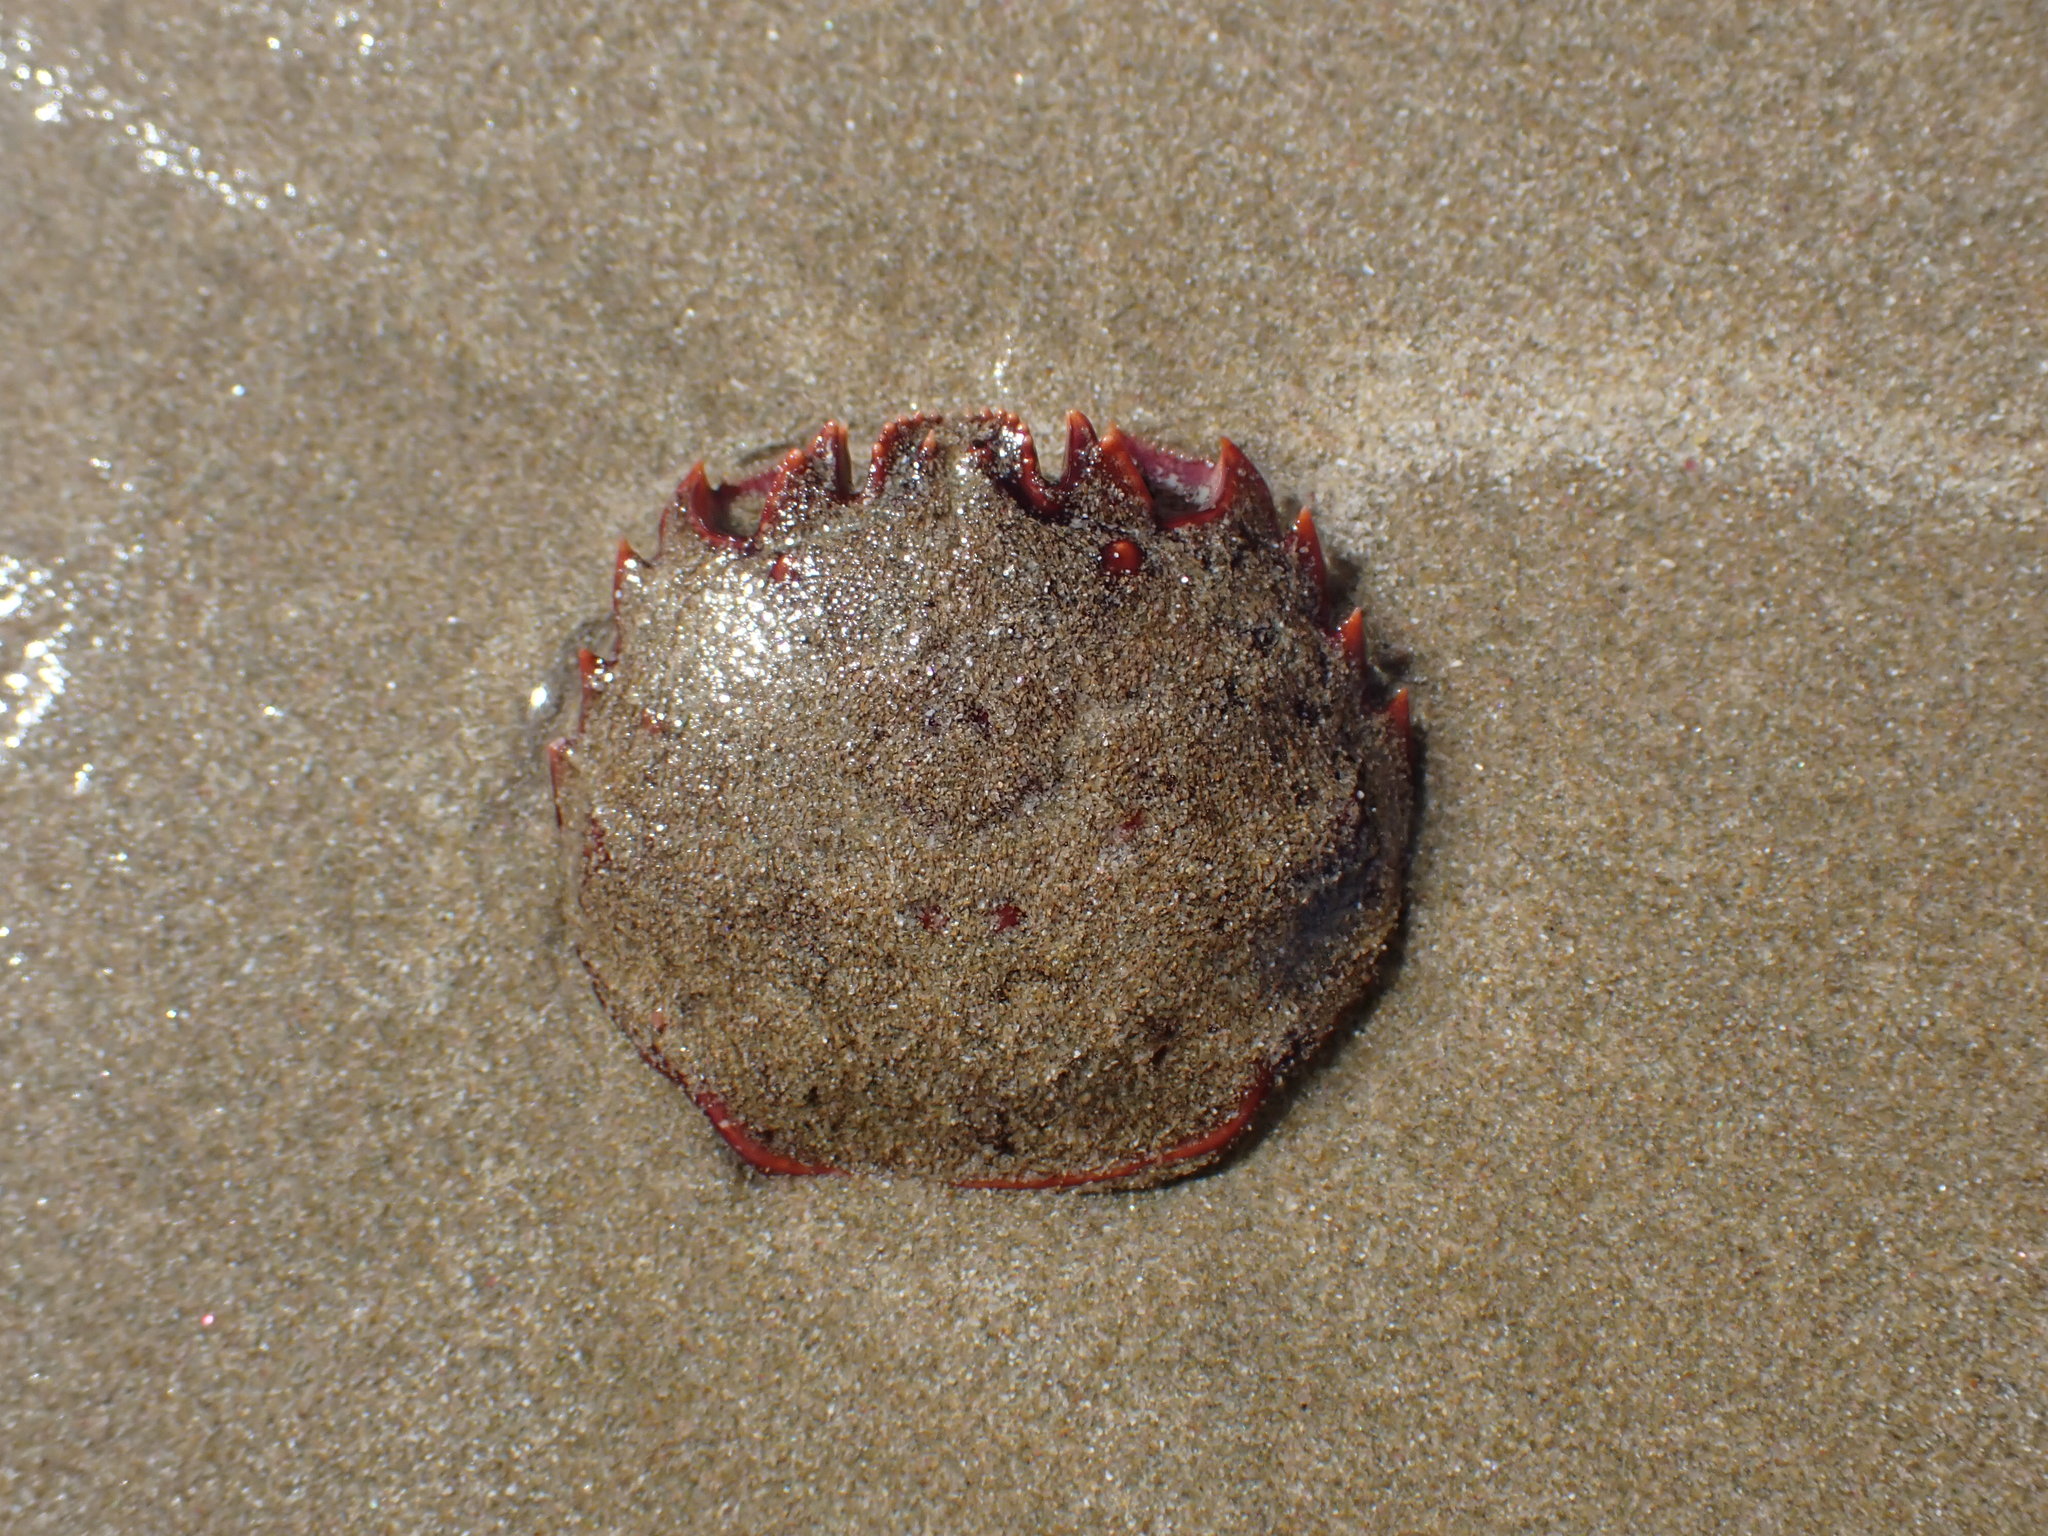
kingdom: Animalia
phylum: Arthropoda
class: Malacostraca
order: Decapoda
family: Plagusiidae
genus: Guinusia
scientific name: Guinusia chabrus
